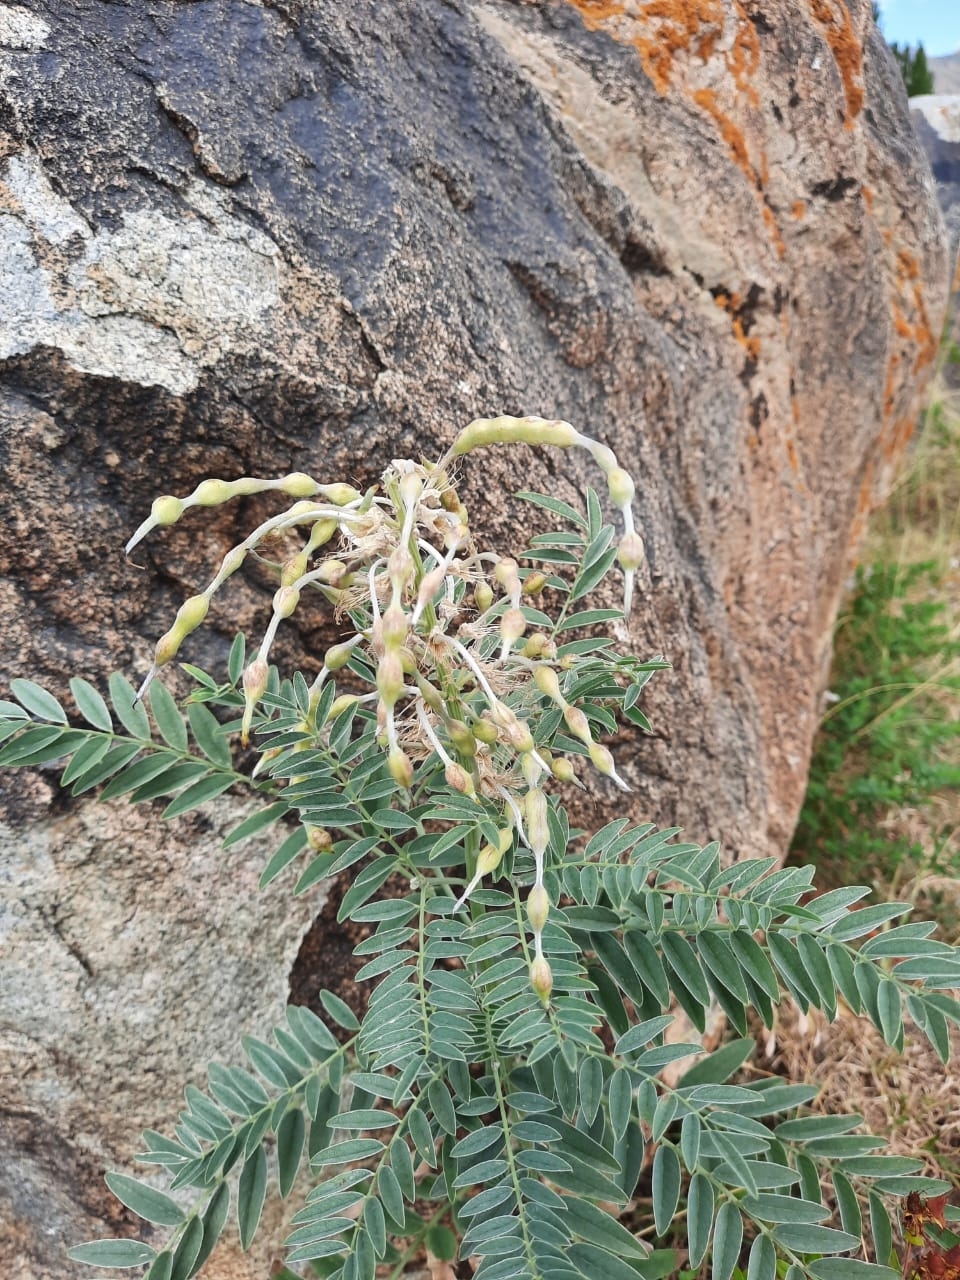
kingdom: Plantae
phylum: Tracheophyta
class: Magnoliopsida
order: Fabales
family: Fabaceae
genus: Sophora
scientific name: Sophora alopecuroides
